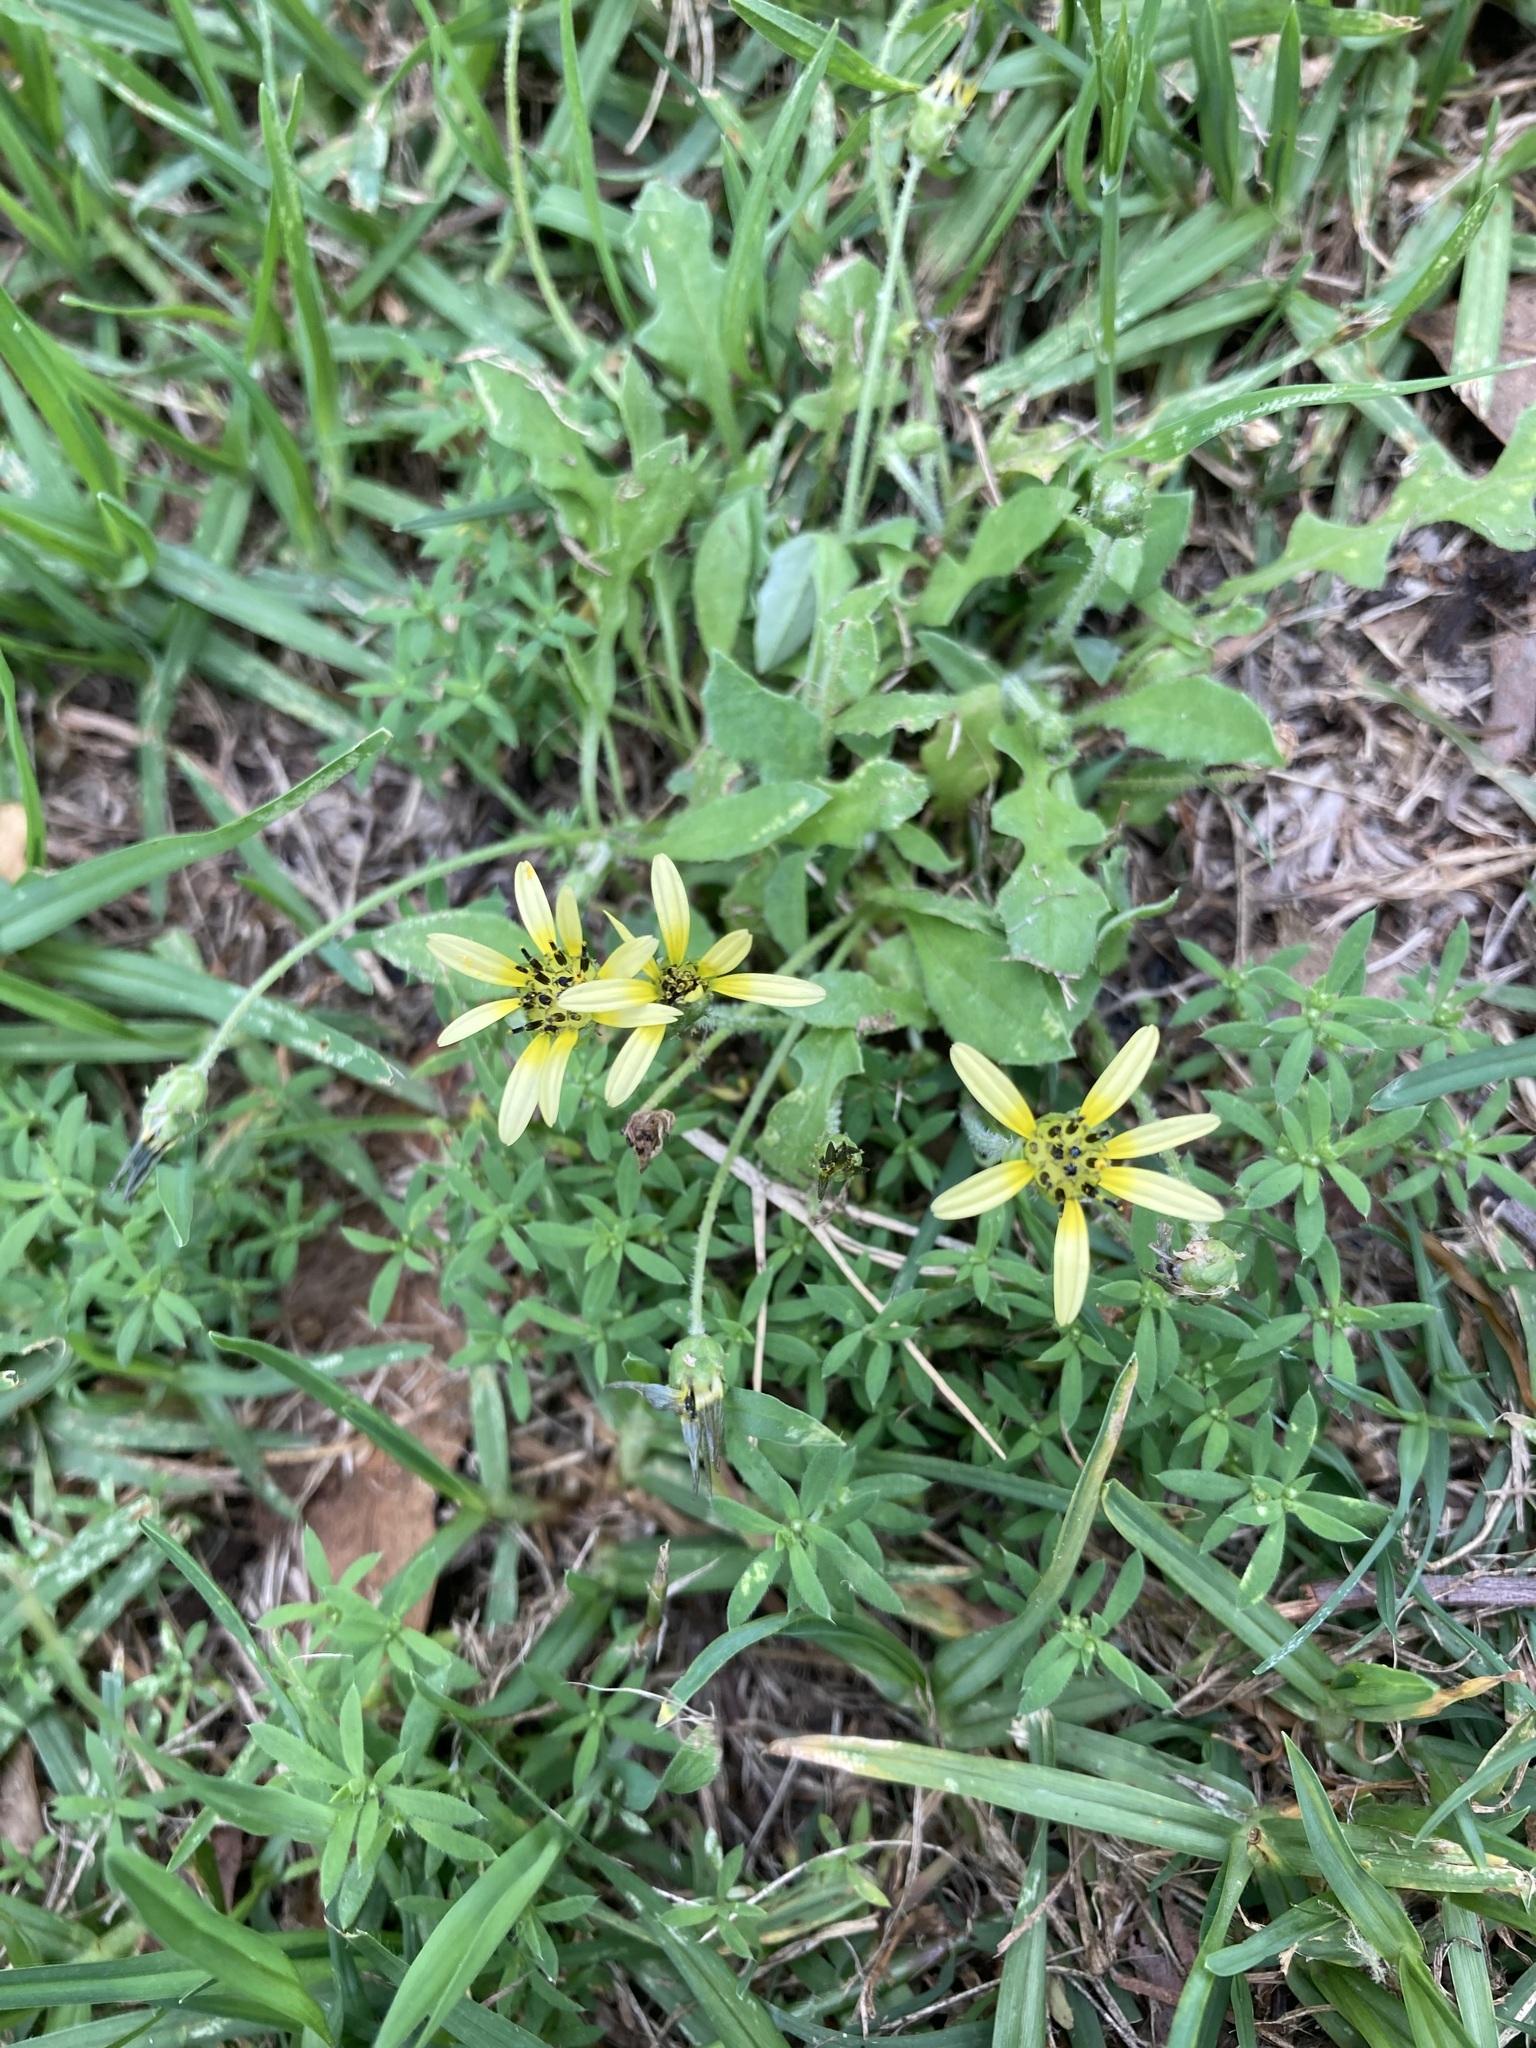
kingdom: Plantae
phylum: Tracheophyta
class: Magnoliopsida
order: Asterales
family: Asteraceae
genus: Arctotheca
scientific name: Arctotheca calendula
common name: Capeweed
